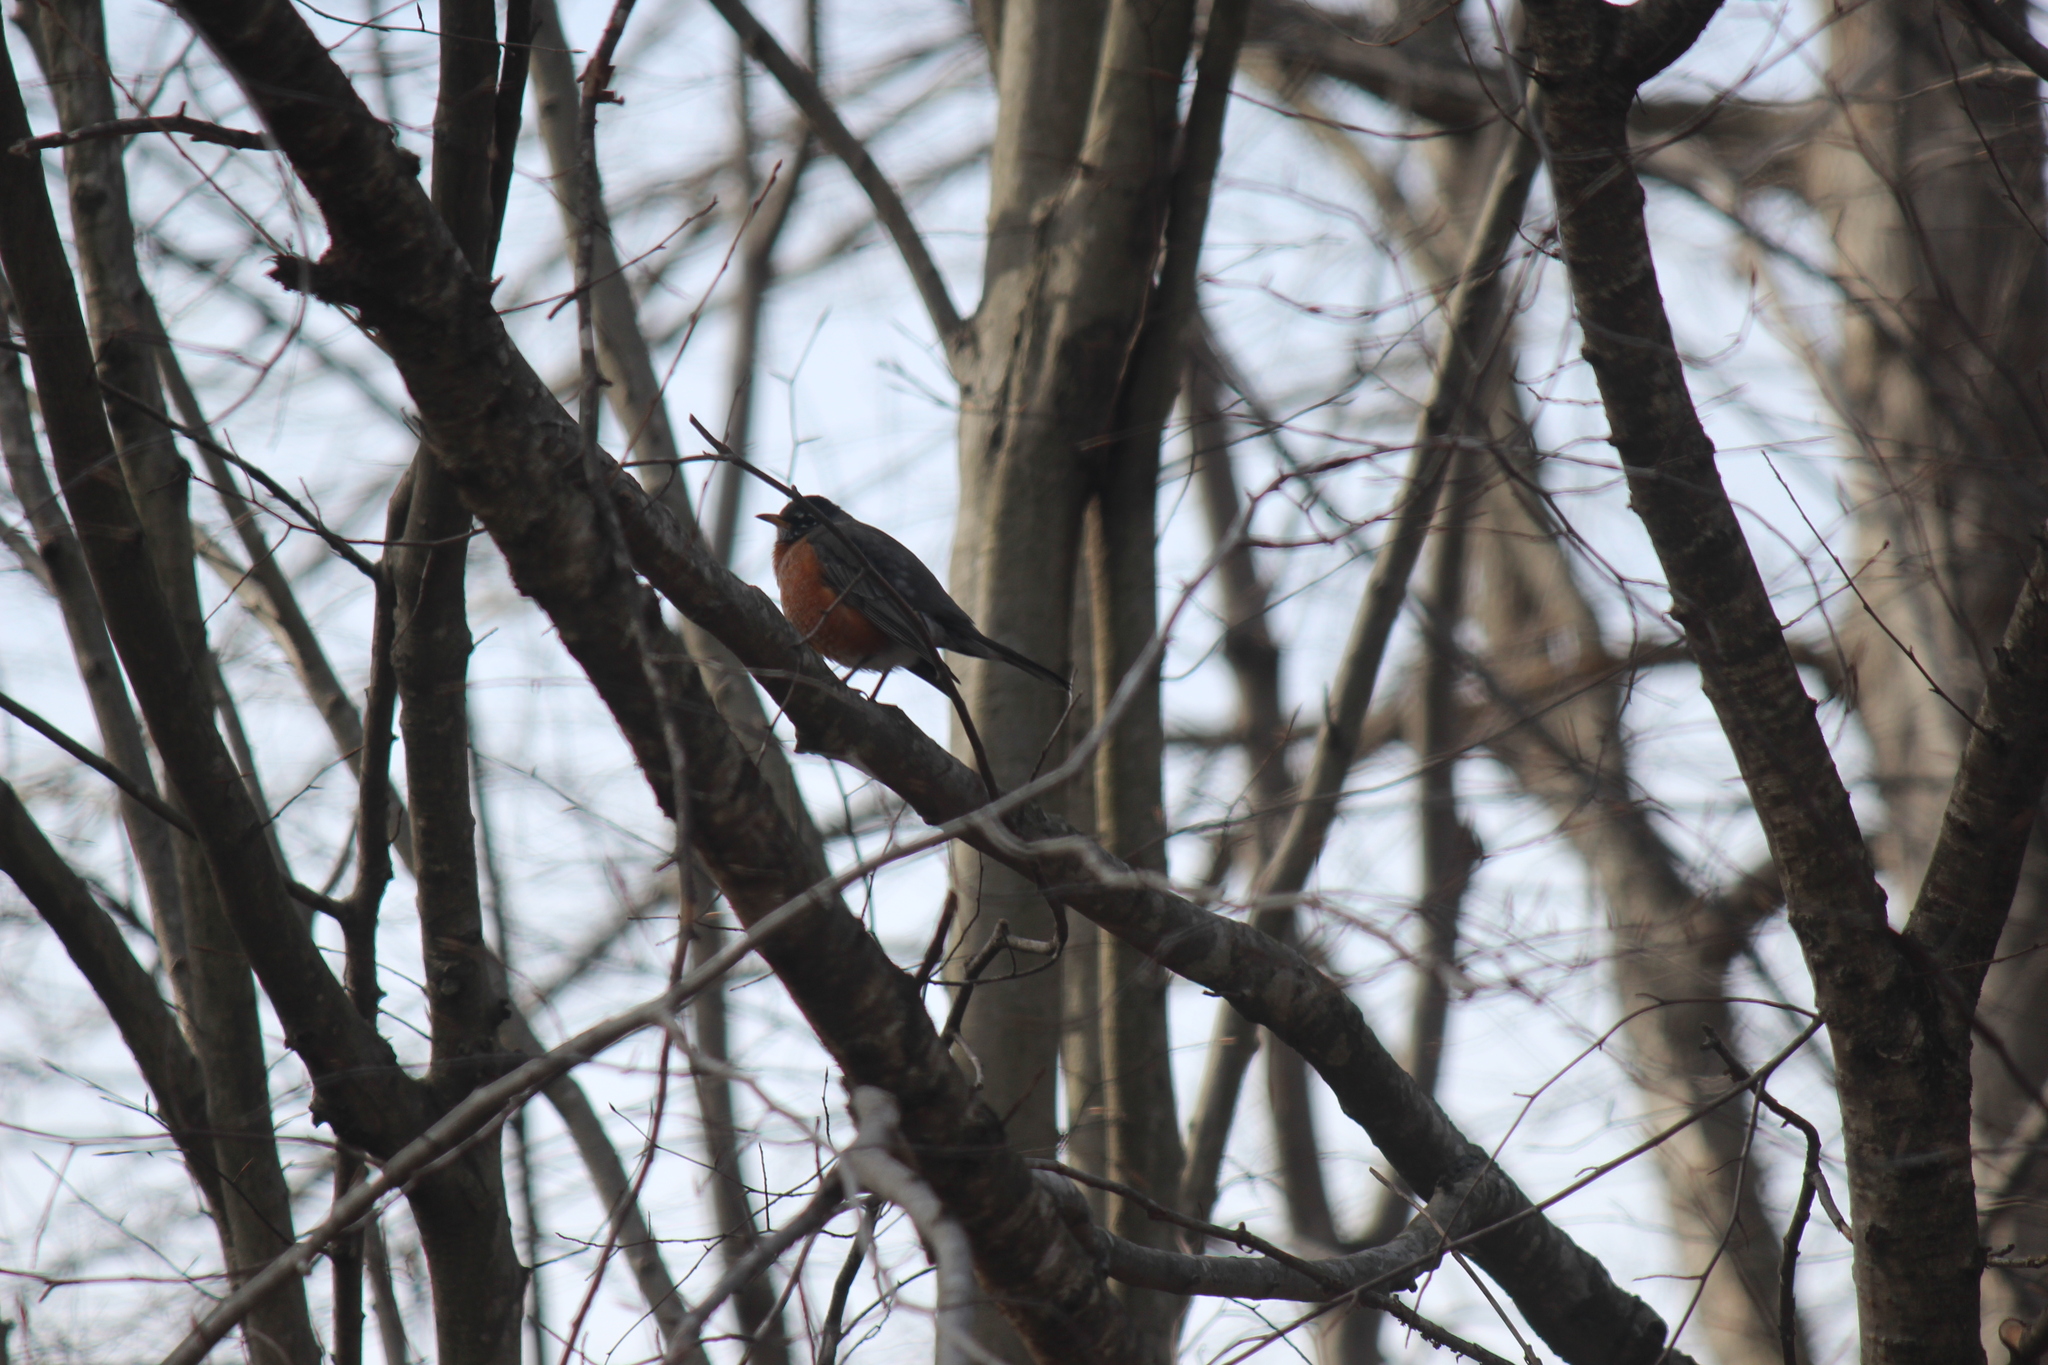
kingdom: Animalia
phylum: Chordata
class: Aves
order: Passeriformes
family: Turdidae
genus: Turdus
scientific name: Turdus migratorius
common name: American robin
